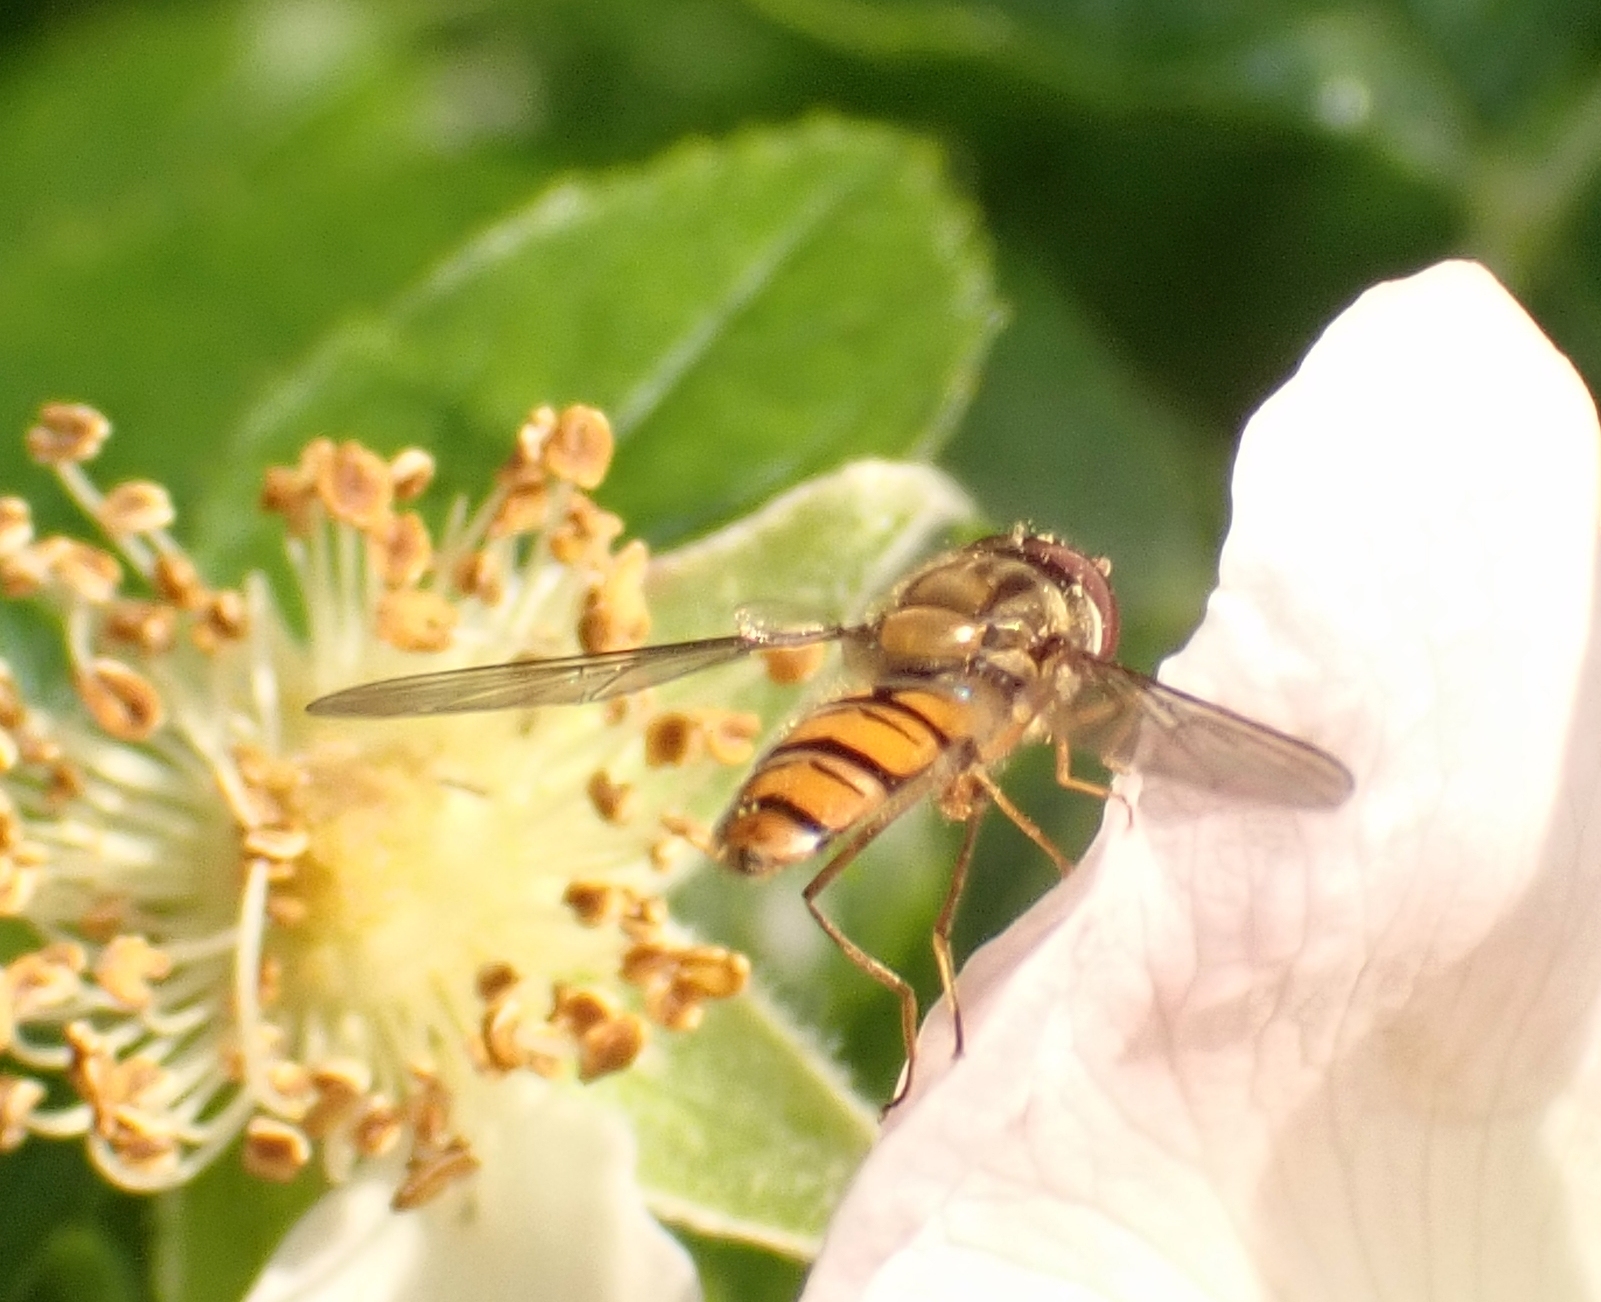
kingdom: Animalia
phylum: Arthropoda
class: Insecta
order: Diptera
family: Syrphidae
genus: Episyrphus
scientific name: Episyrphus balteatus
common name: Marmalade hoverfly
